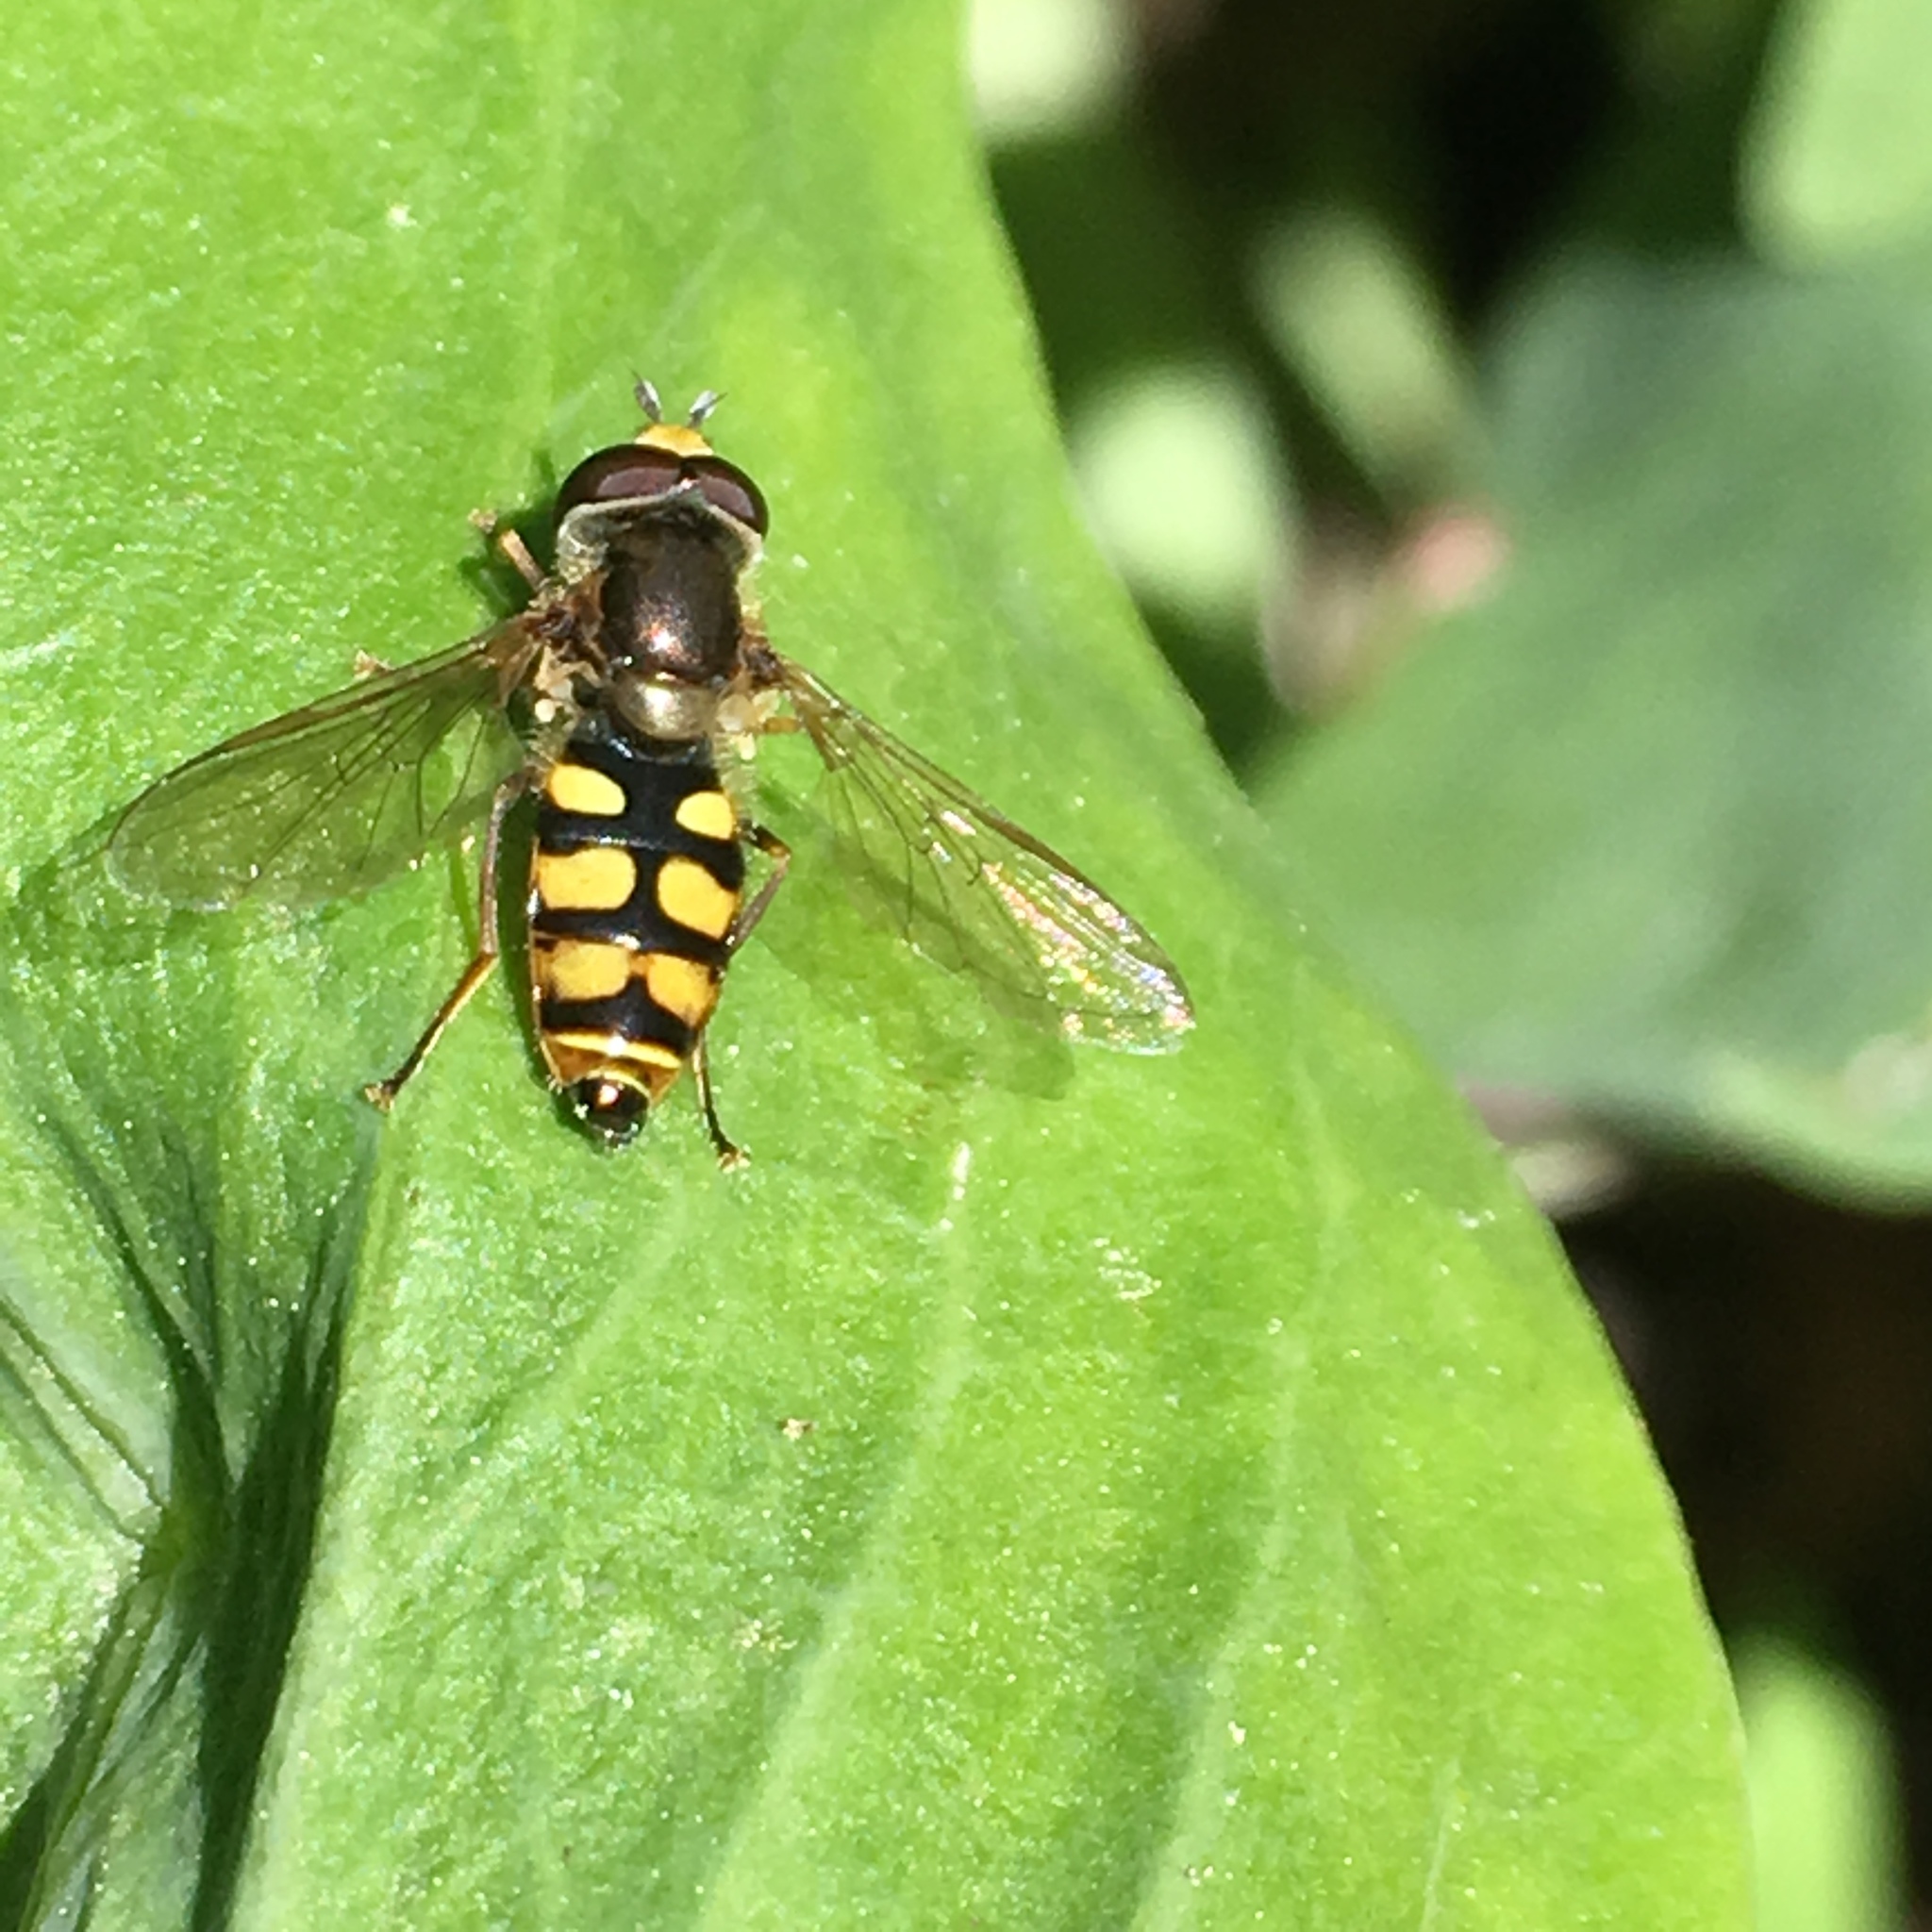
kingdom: Animalia
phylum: Arthropoda
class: Insecta
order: Diptera
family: Syrphidae
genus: Eupeodes
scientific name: Eupeodes corollae
